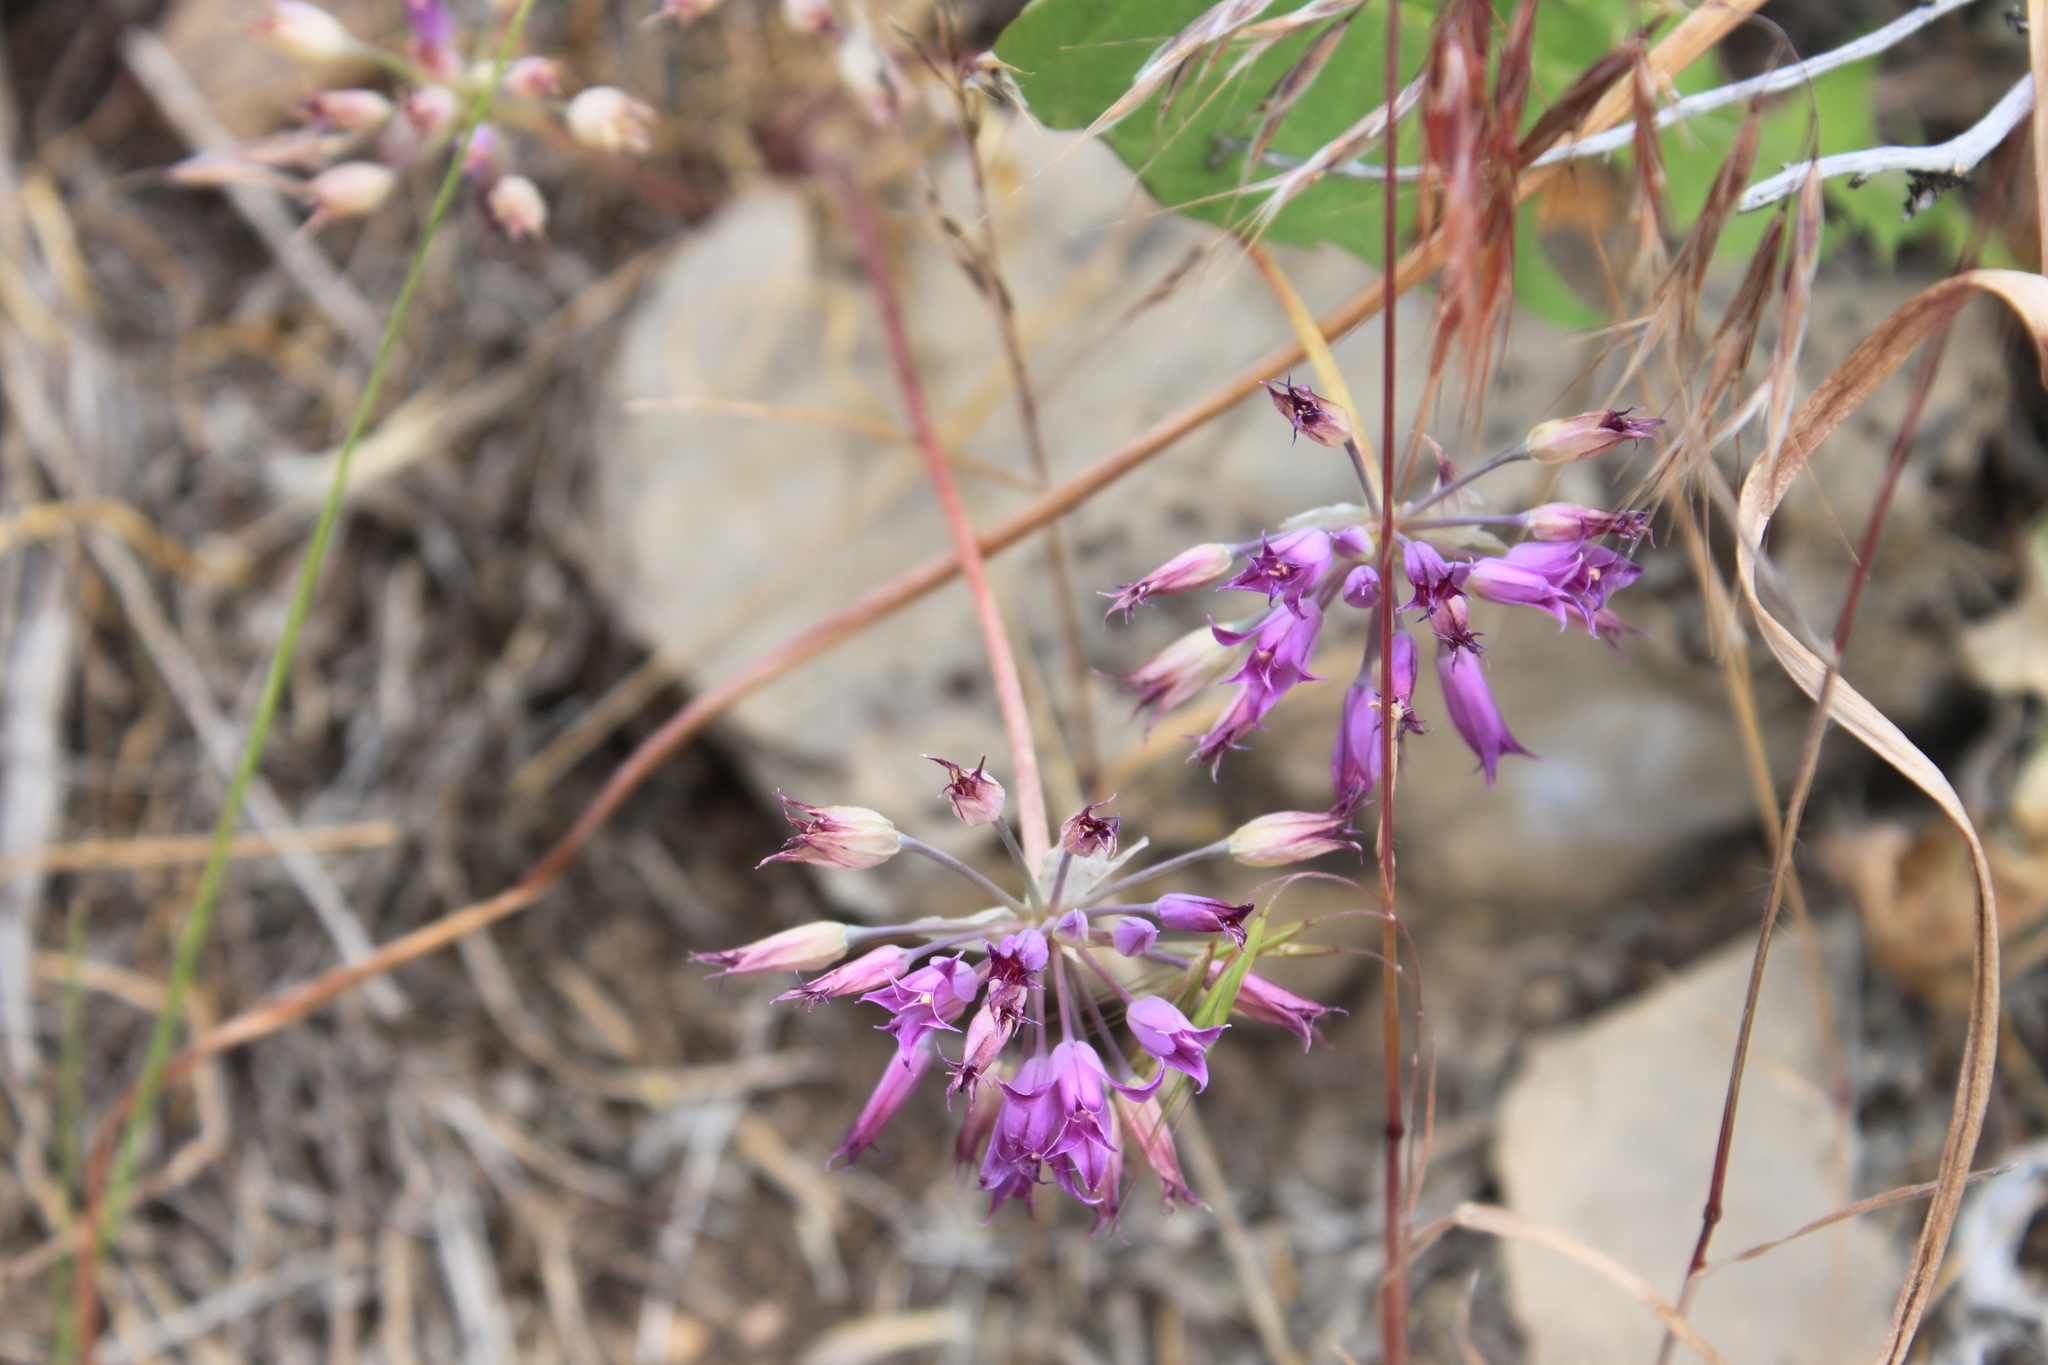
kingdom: Plantae
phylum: Tracheophyta
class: Liliopsida
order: Asparagales
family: Amaryllidaceae
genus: Allium
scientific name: Allium acuminatum
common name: Hooker's onion
